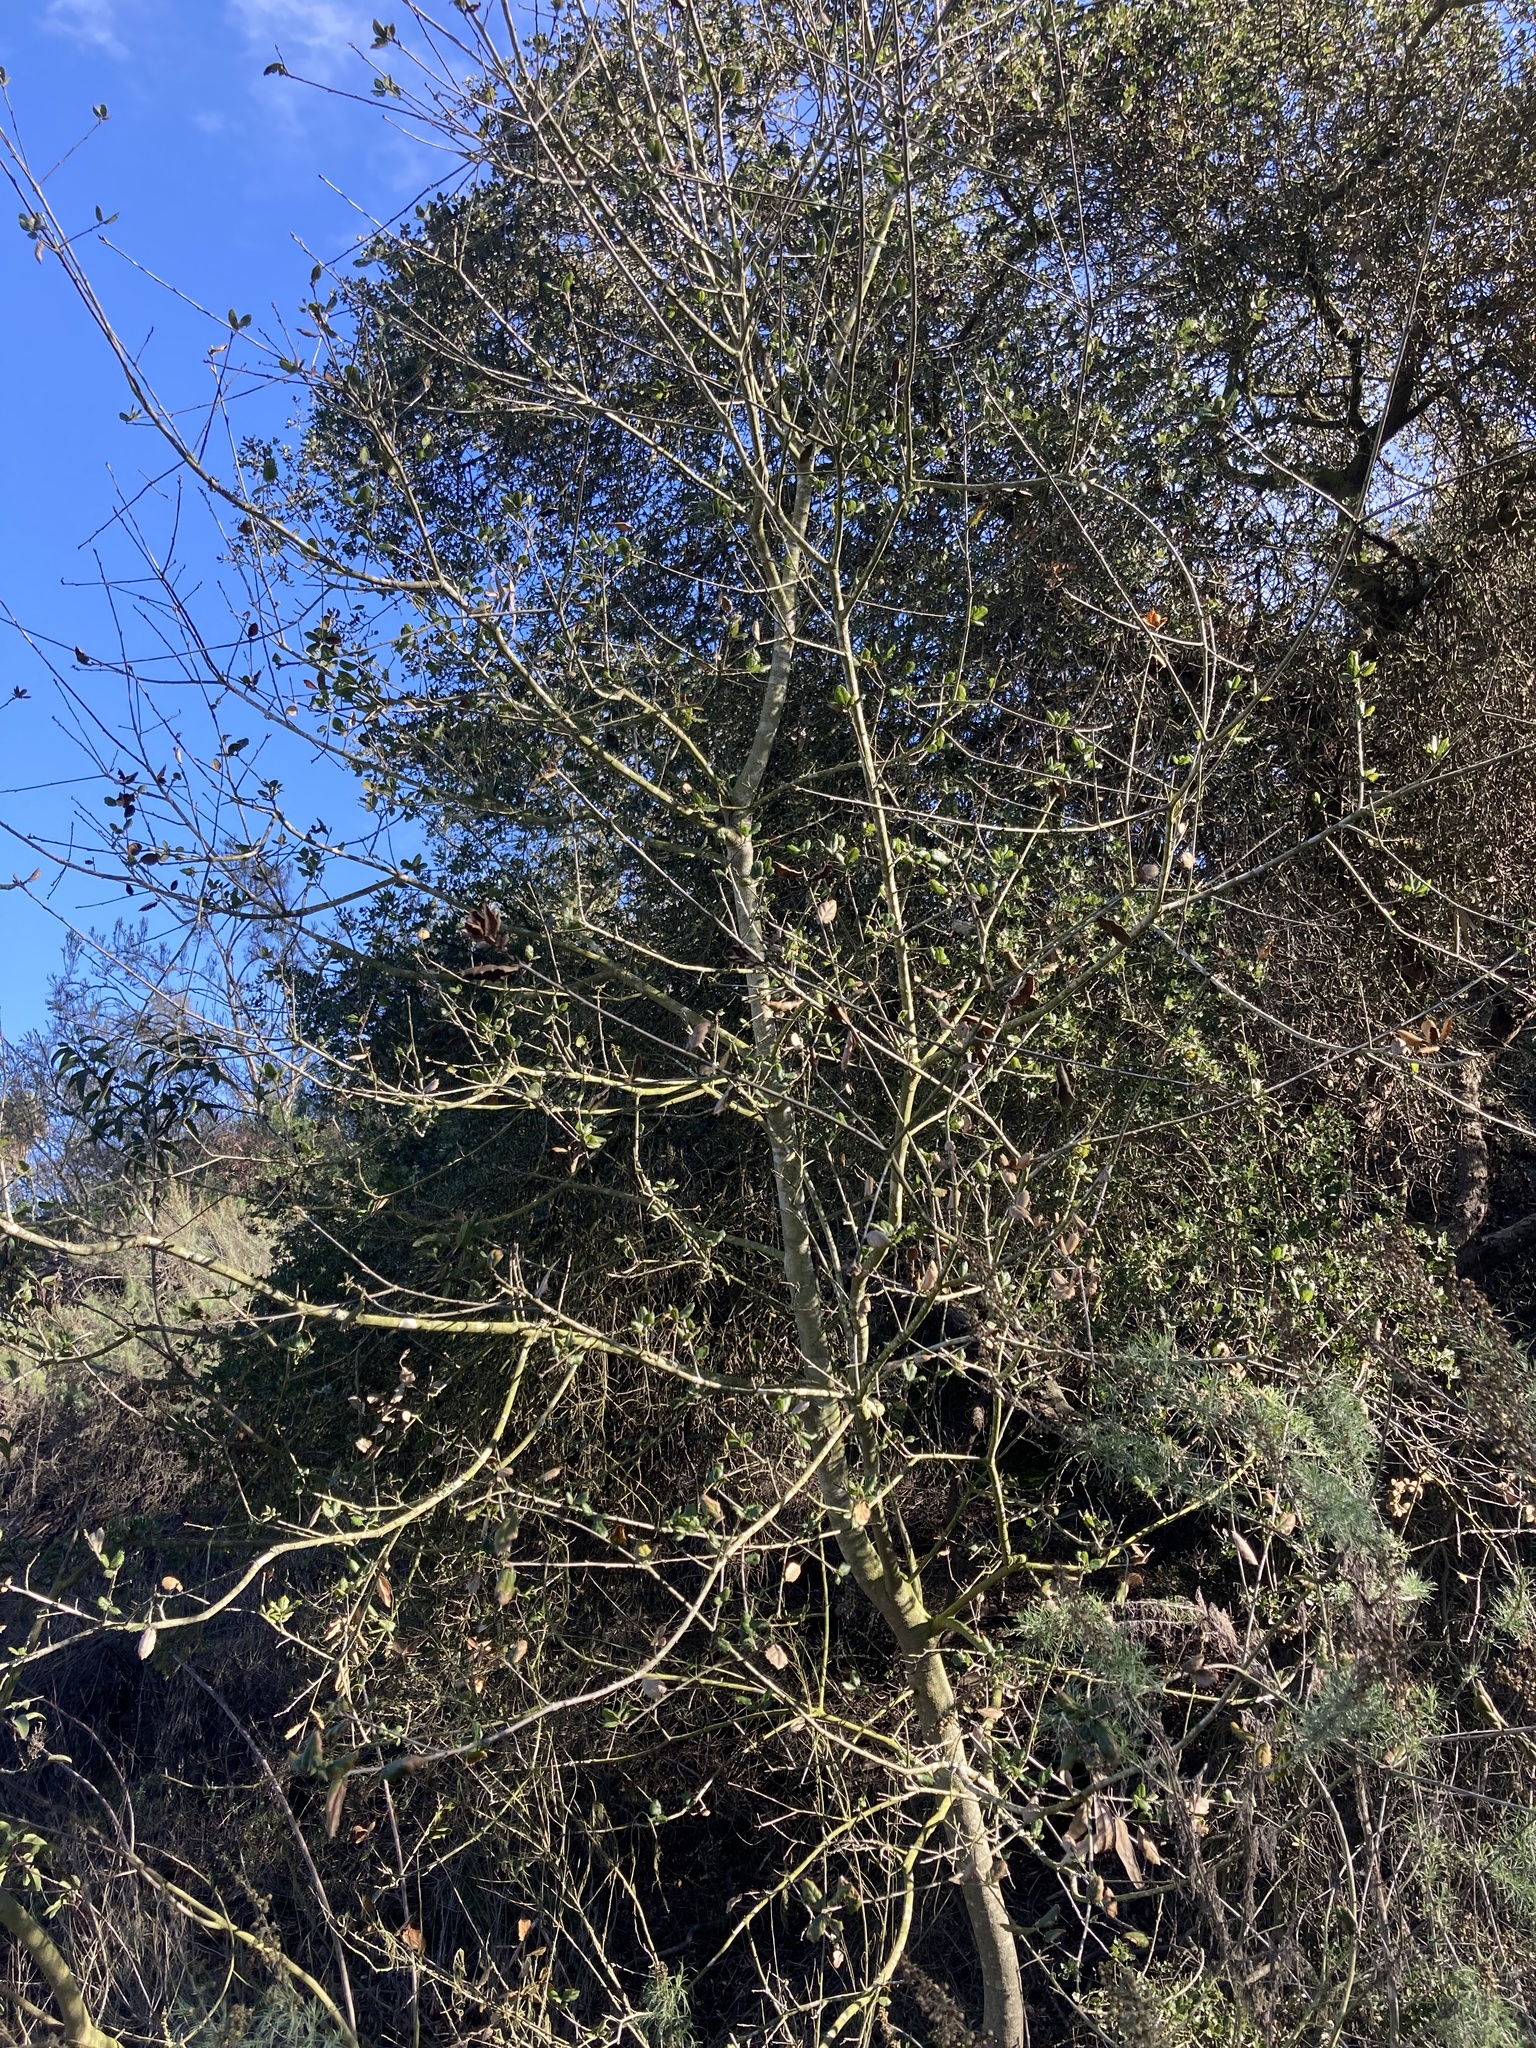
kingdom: Plantae
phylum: Tracheophyta
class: Magnoliopsida
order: Fagales
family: Fagaceae
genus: Quercus
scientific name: Quercus agrifolia
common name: California live oak
